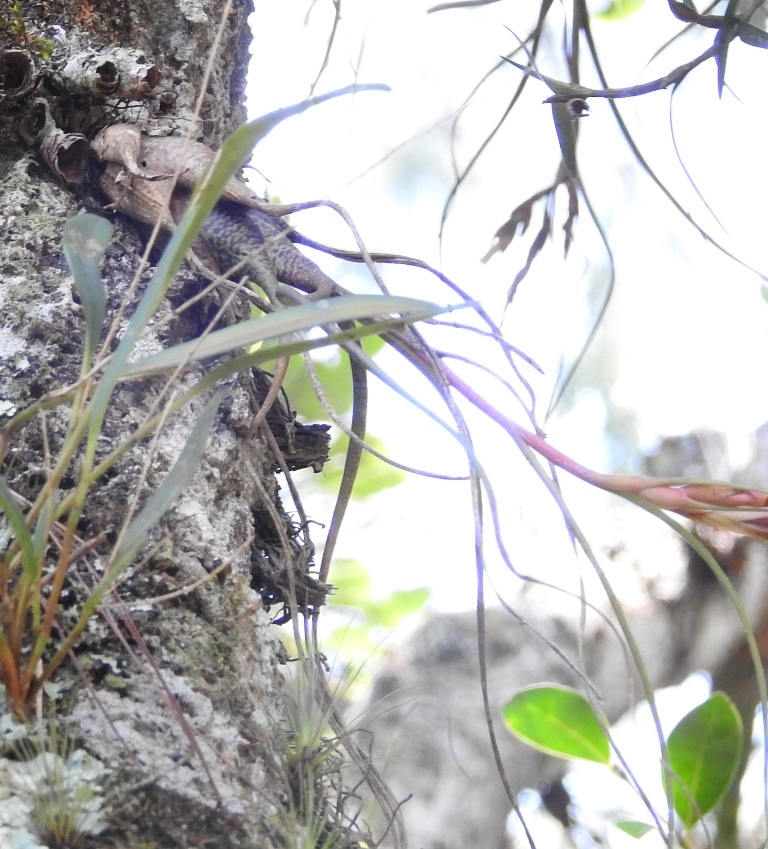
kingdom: Plantae
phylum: Tracheophyta
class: Liliopsida
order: Poales
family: Bromeliaceae
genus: Tillandsia
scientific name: Tillandsia butzii
